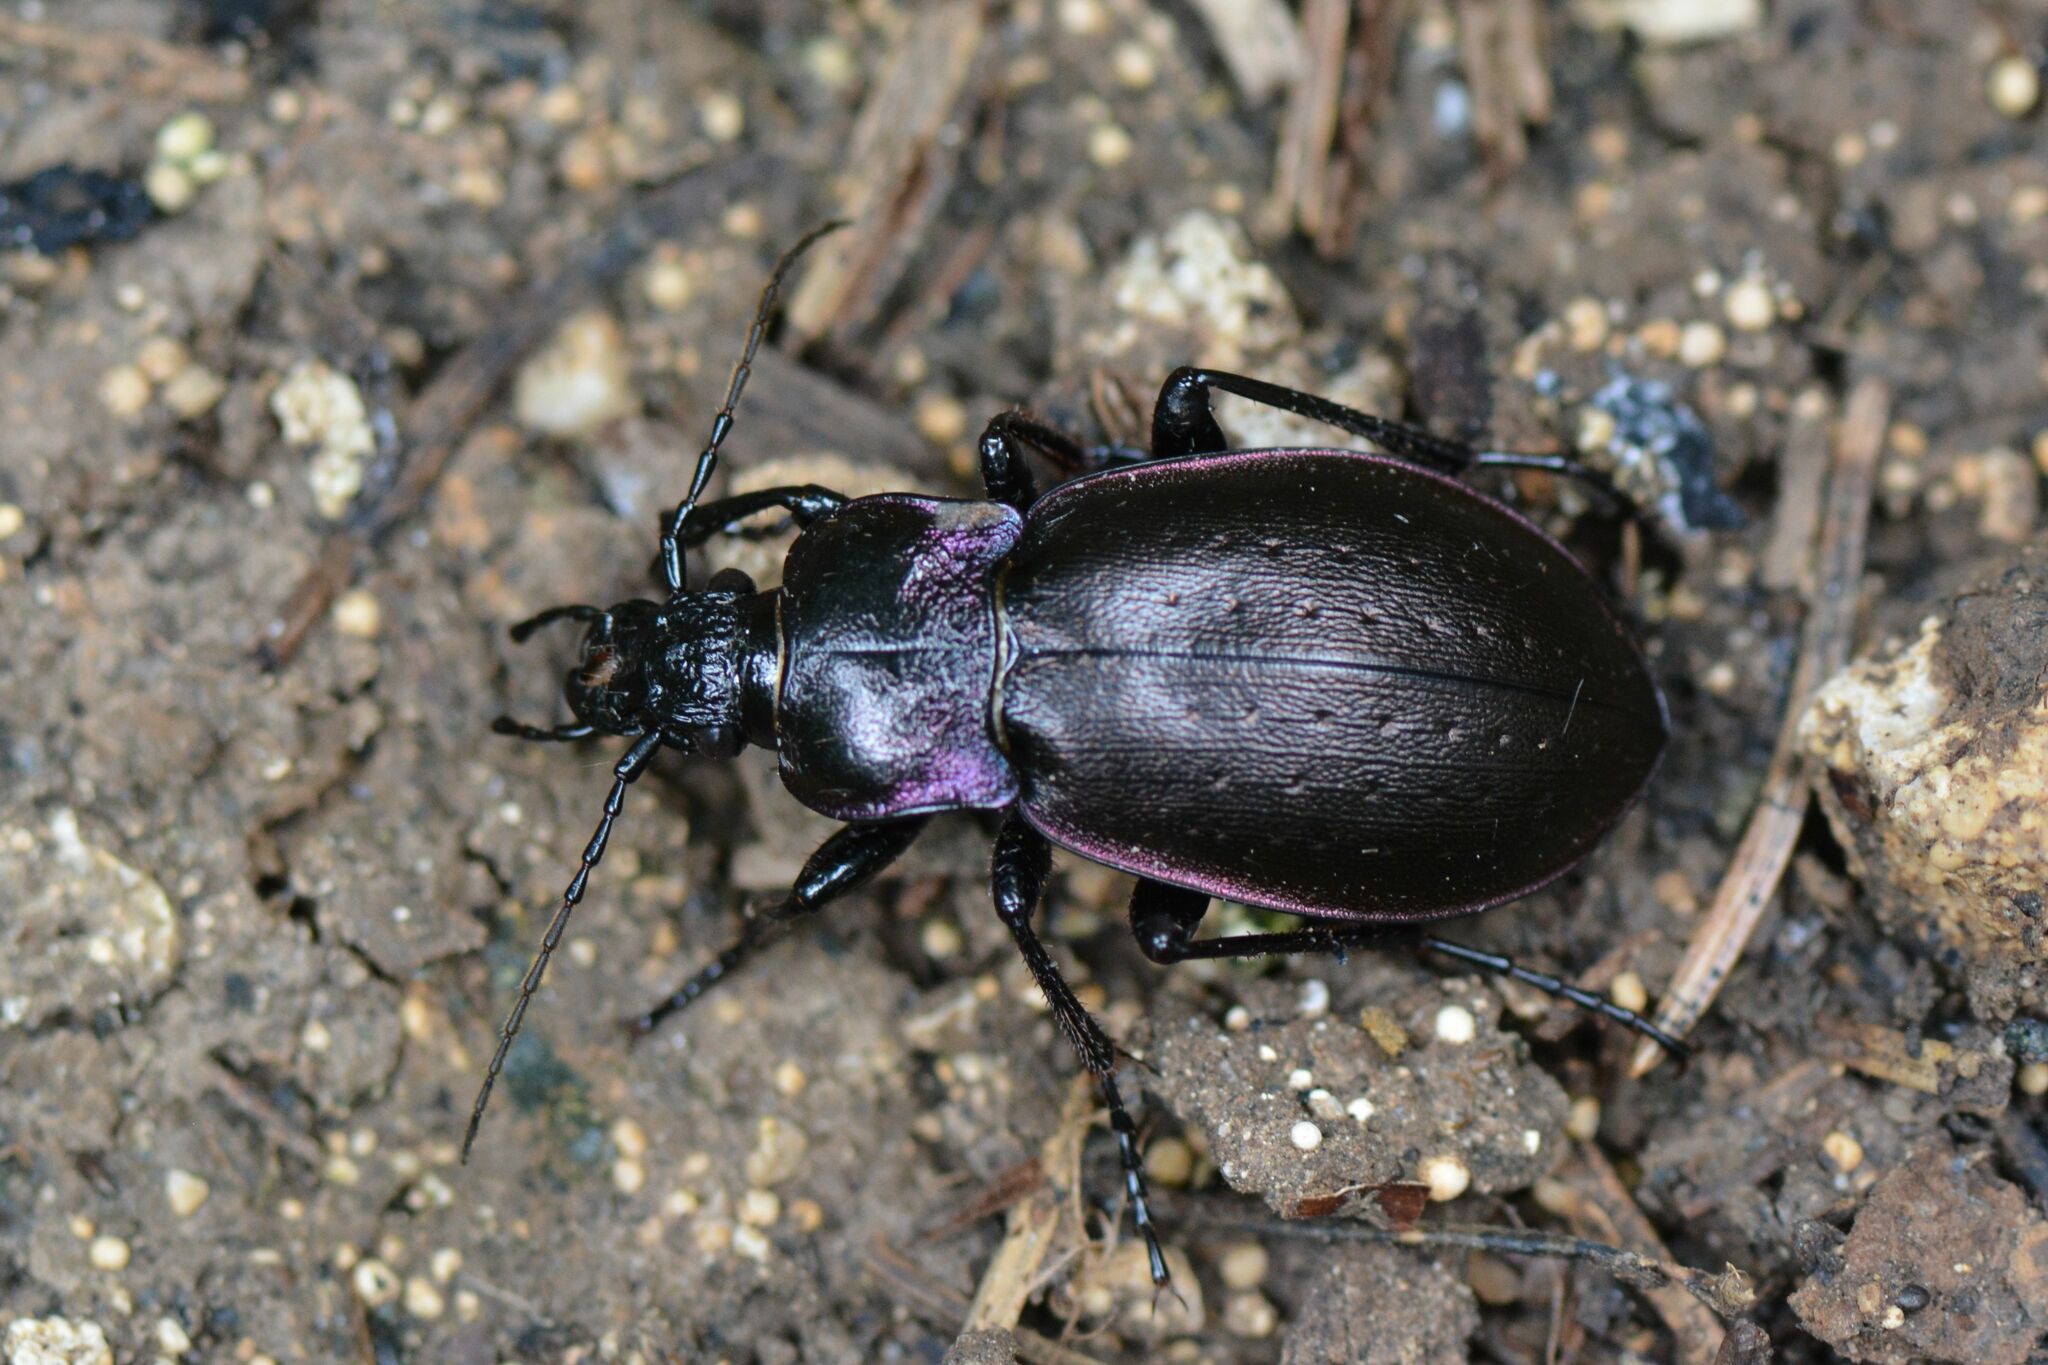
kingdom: Animalia
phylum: Arthropoda
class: Insecta
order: Coleoptera
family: Carabidae
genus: Carabus
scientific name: Carabus nemoralis
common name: European ground beetle
